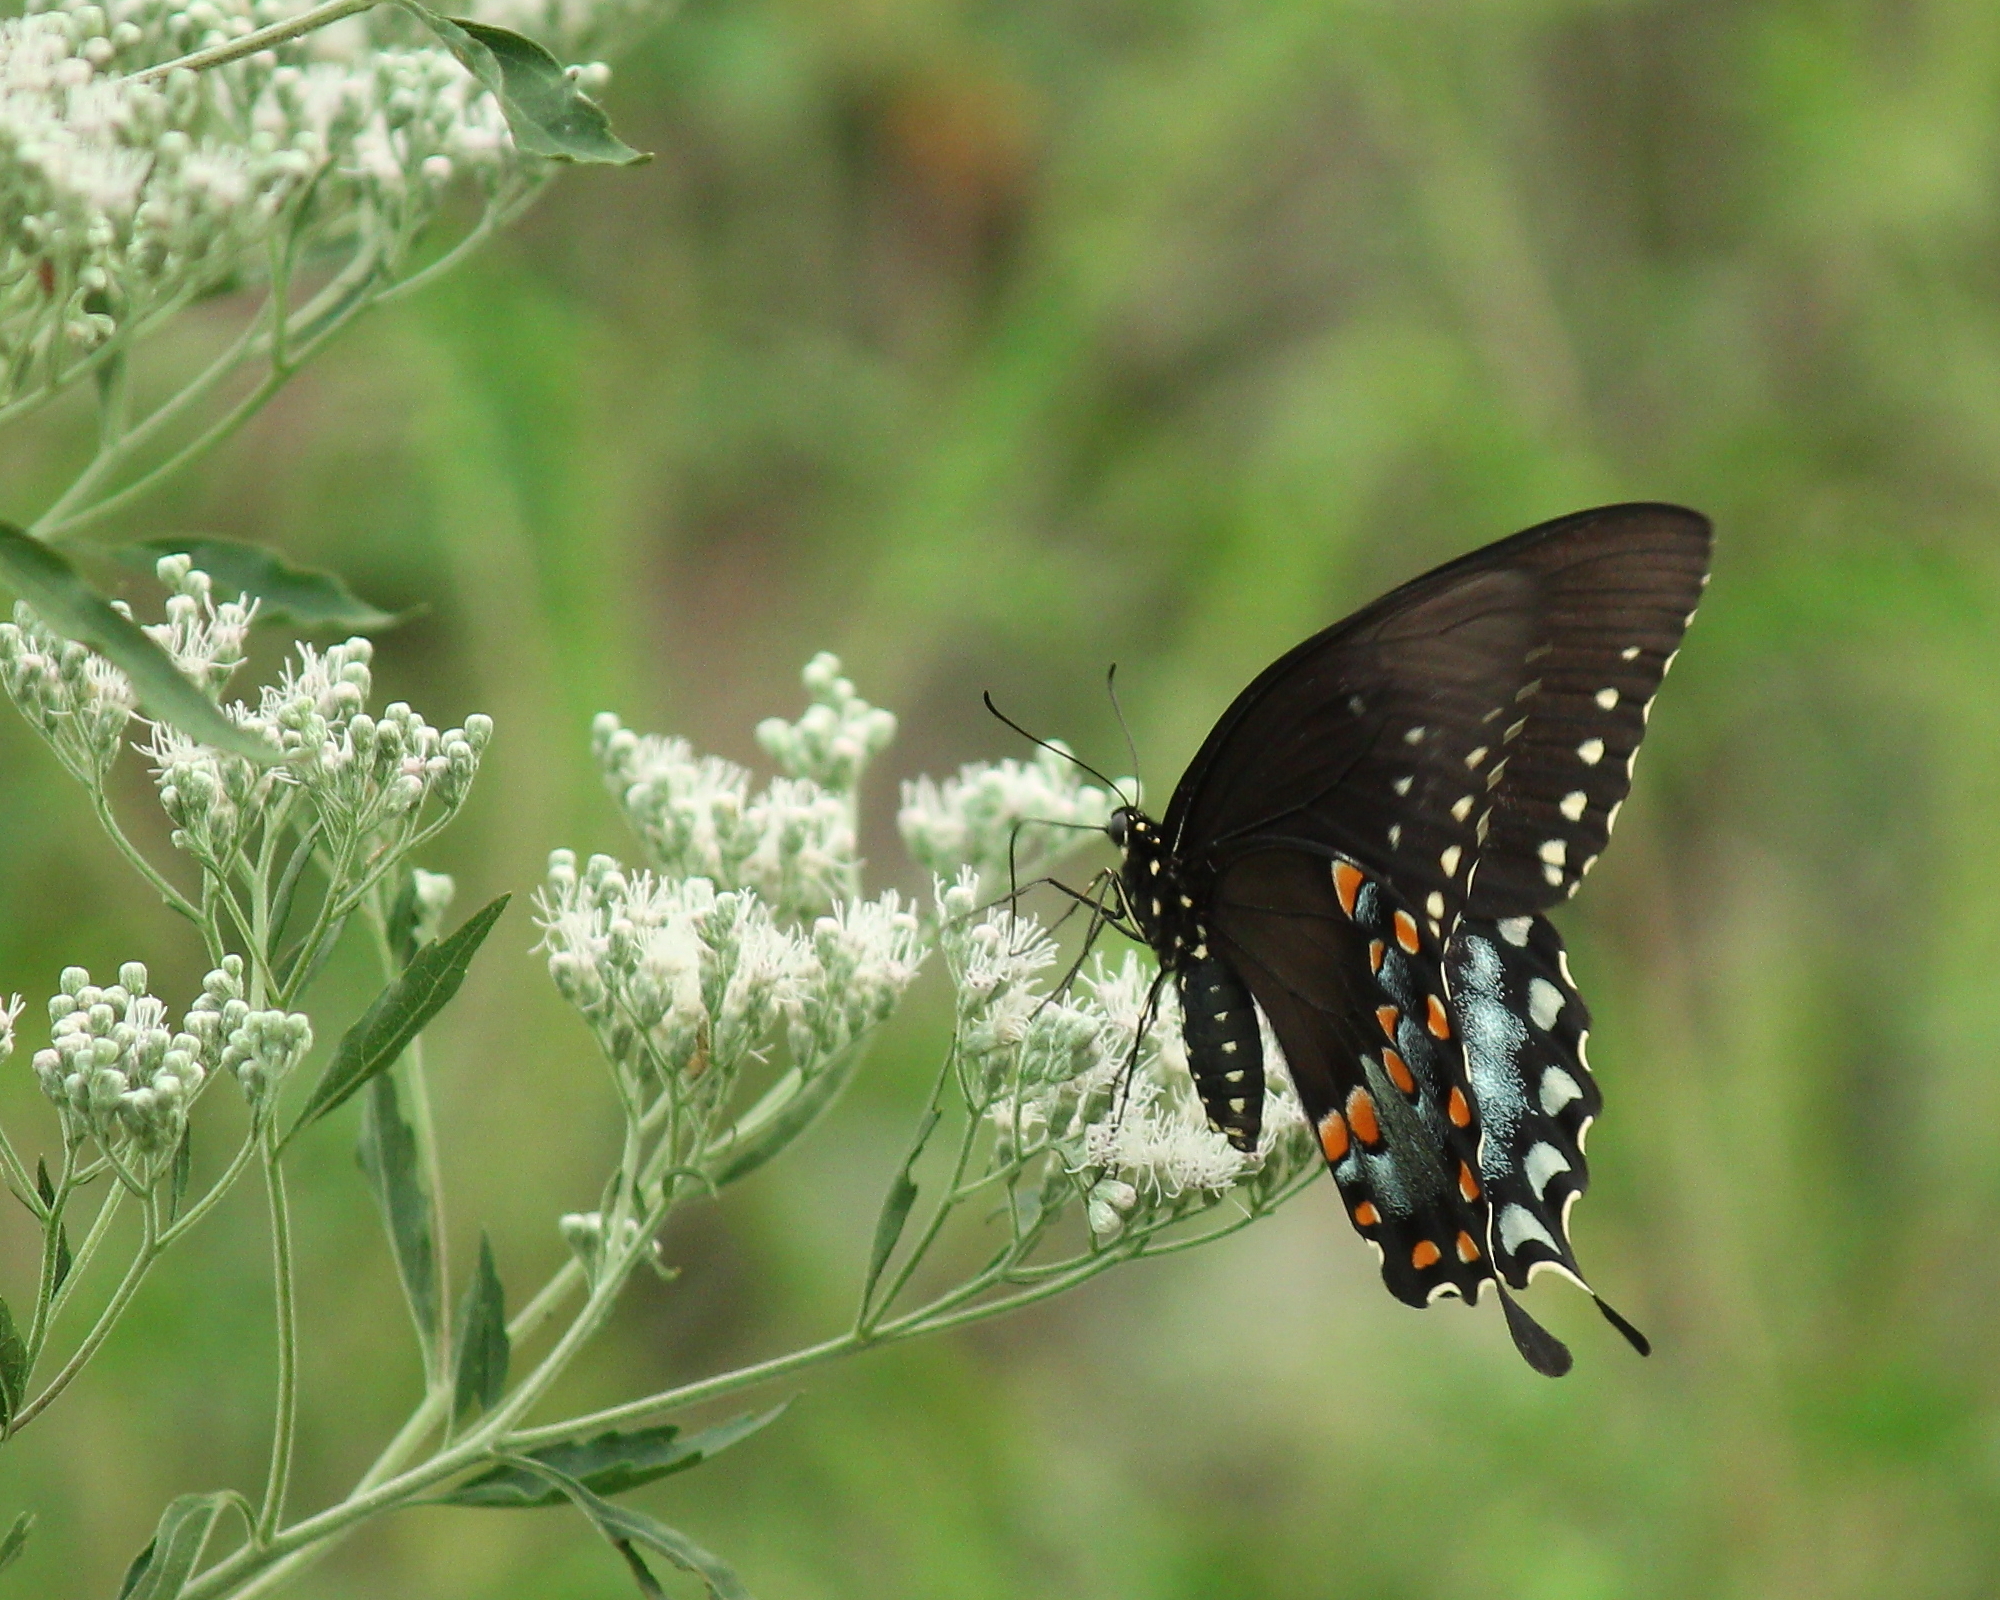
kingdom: Animalia
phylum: Arthropoda
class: Insecta
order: Lepidoptera
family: Papilionidae
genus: Papilio
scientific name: Papilio troilus
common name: Spicebush swallowtail
